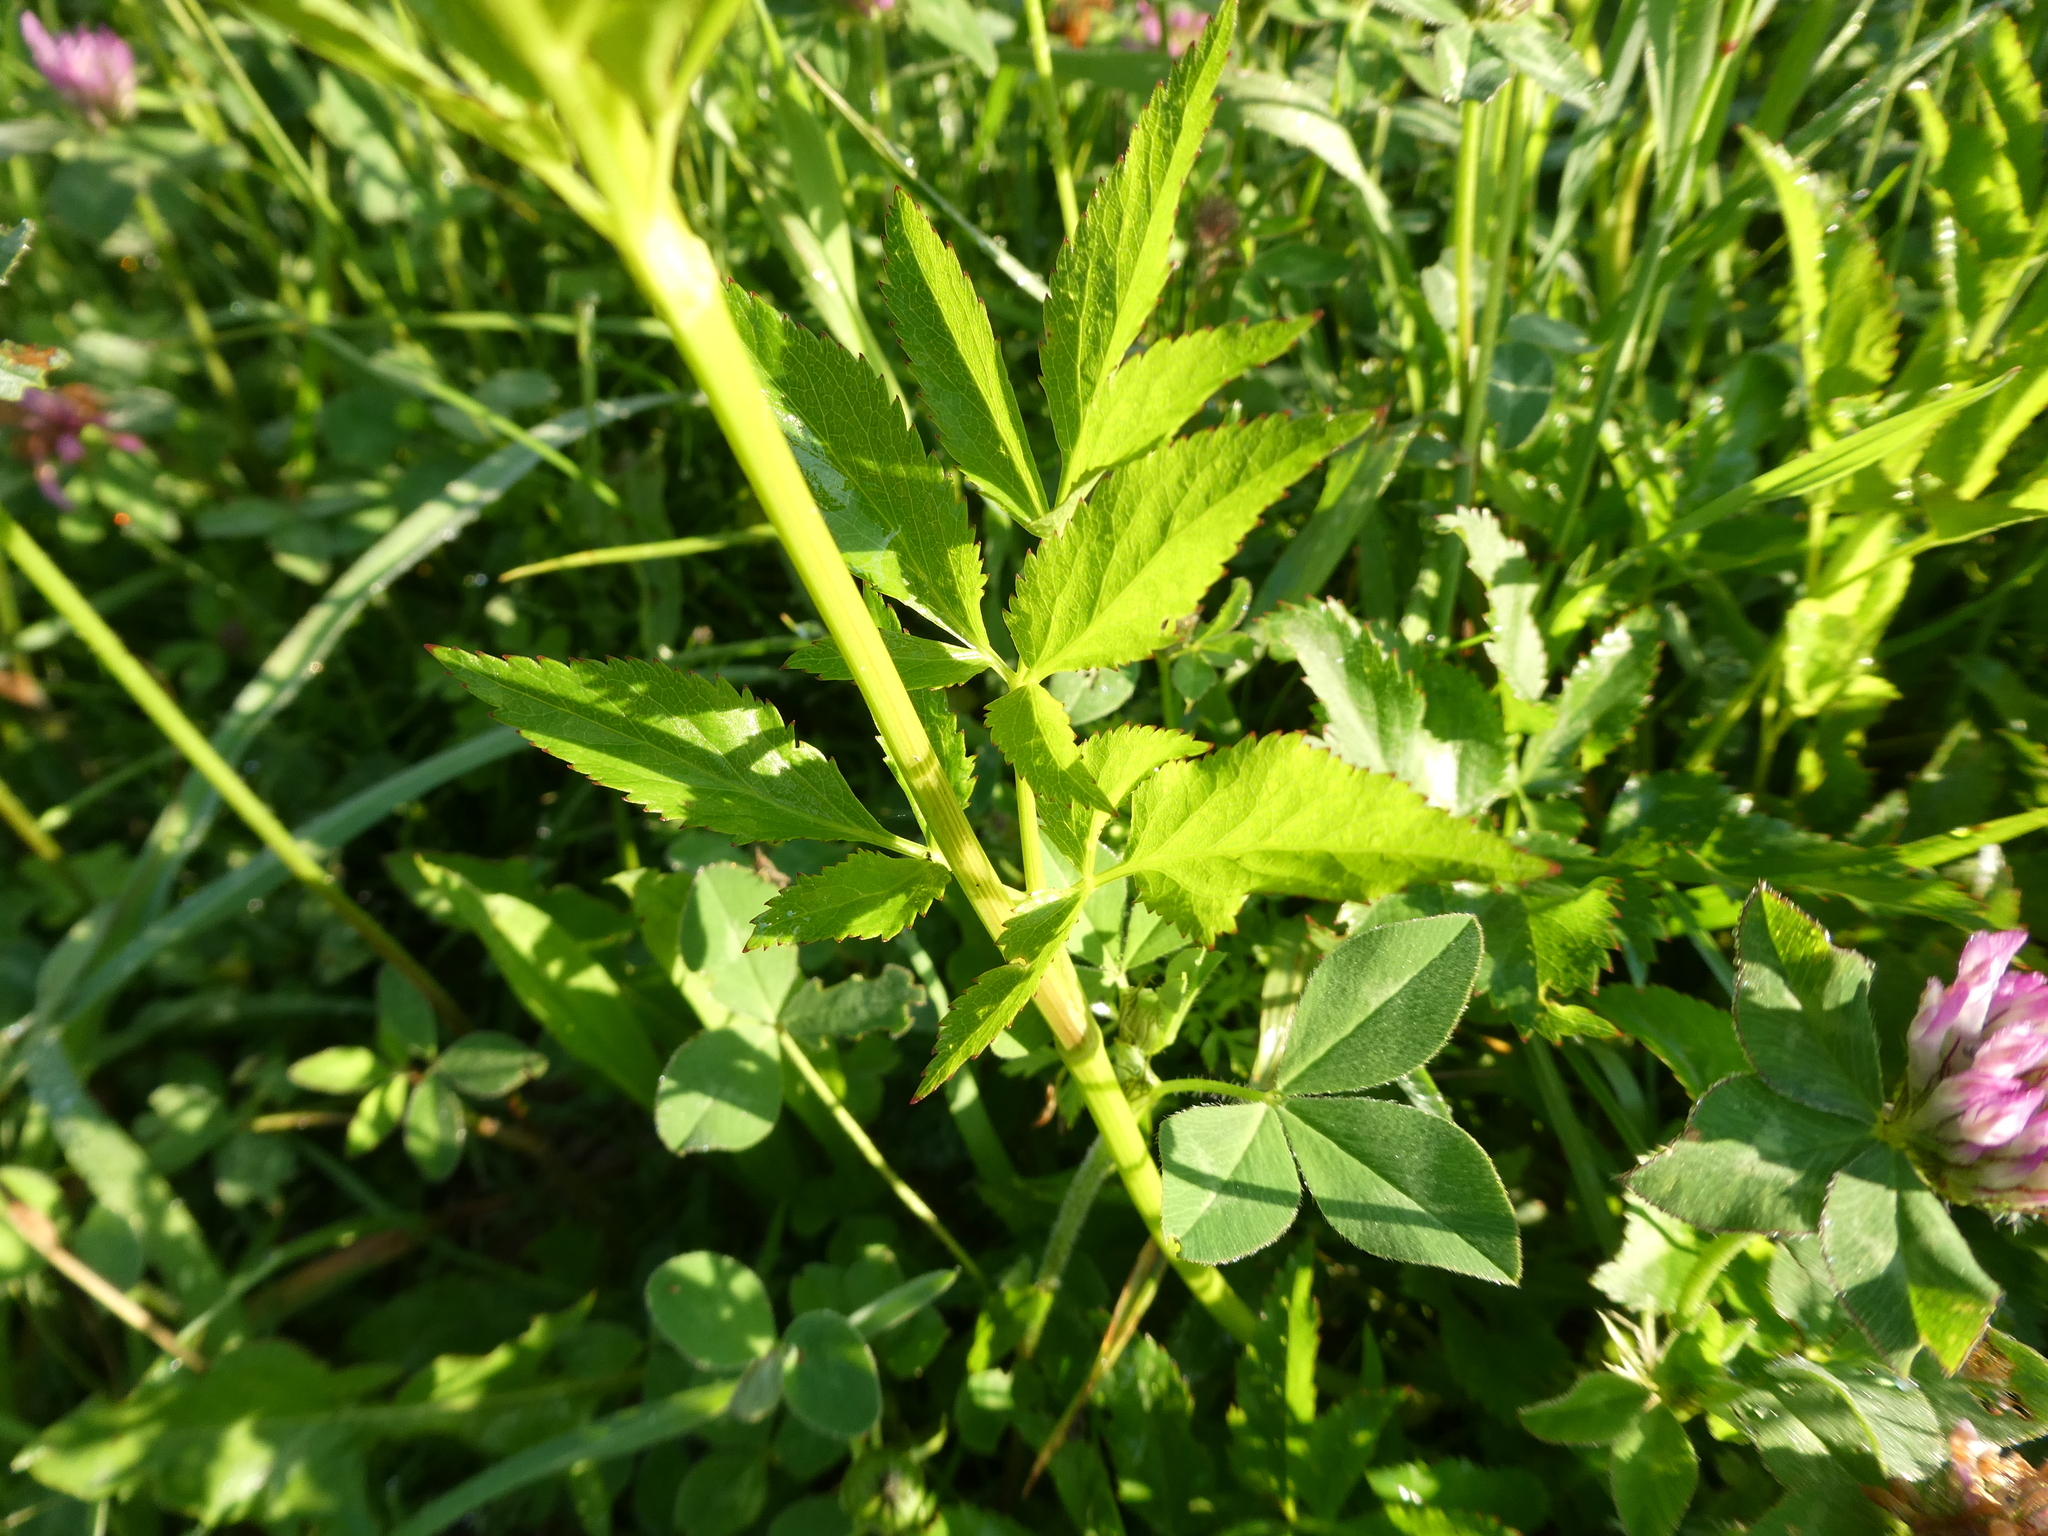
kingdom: Plantae
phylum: Tracheophyta
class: Magnoliopsida
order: Apiales
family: Apiaceae
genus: Zizia
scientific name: Zizia aurea
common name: Golden alexanders
